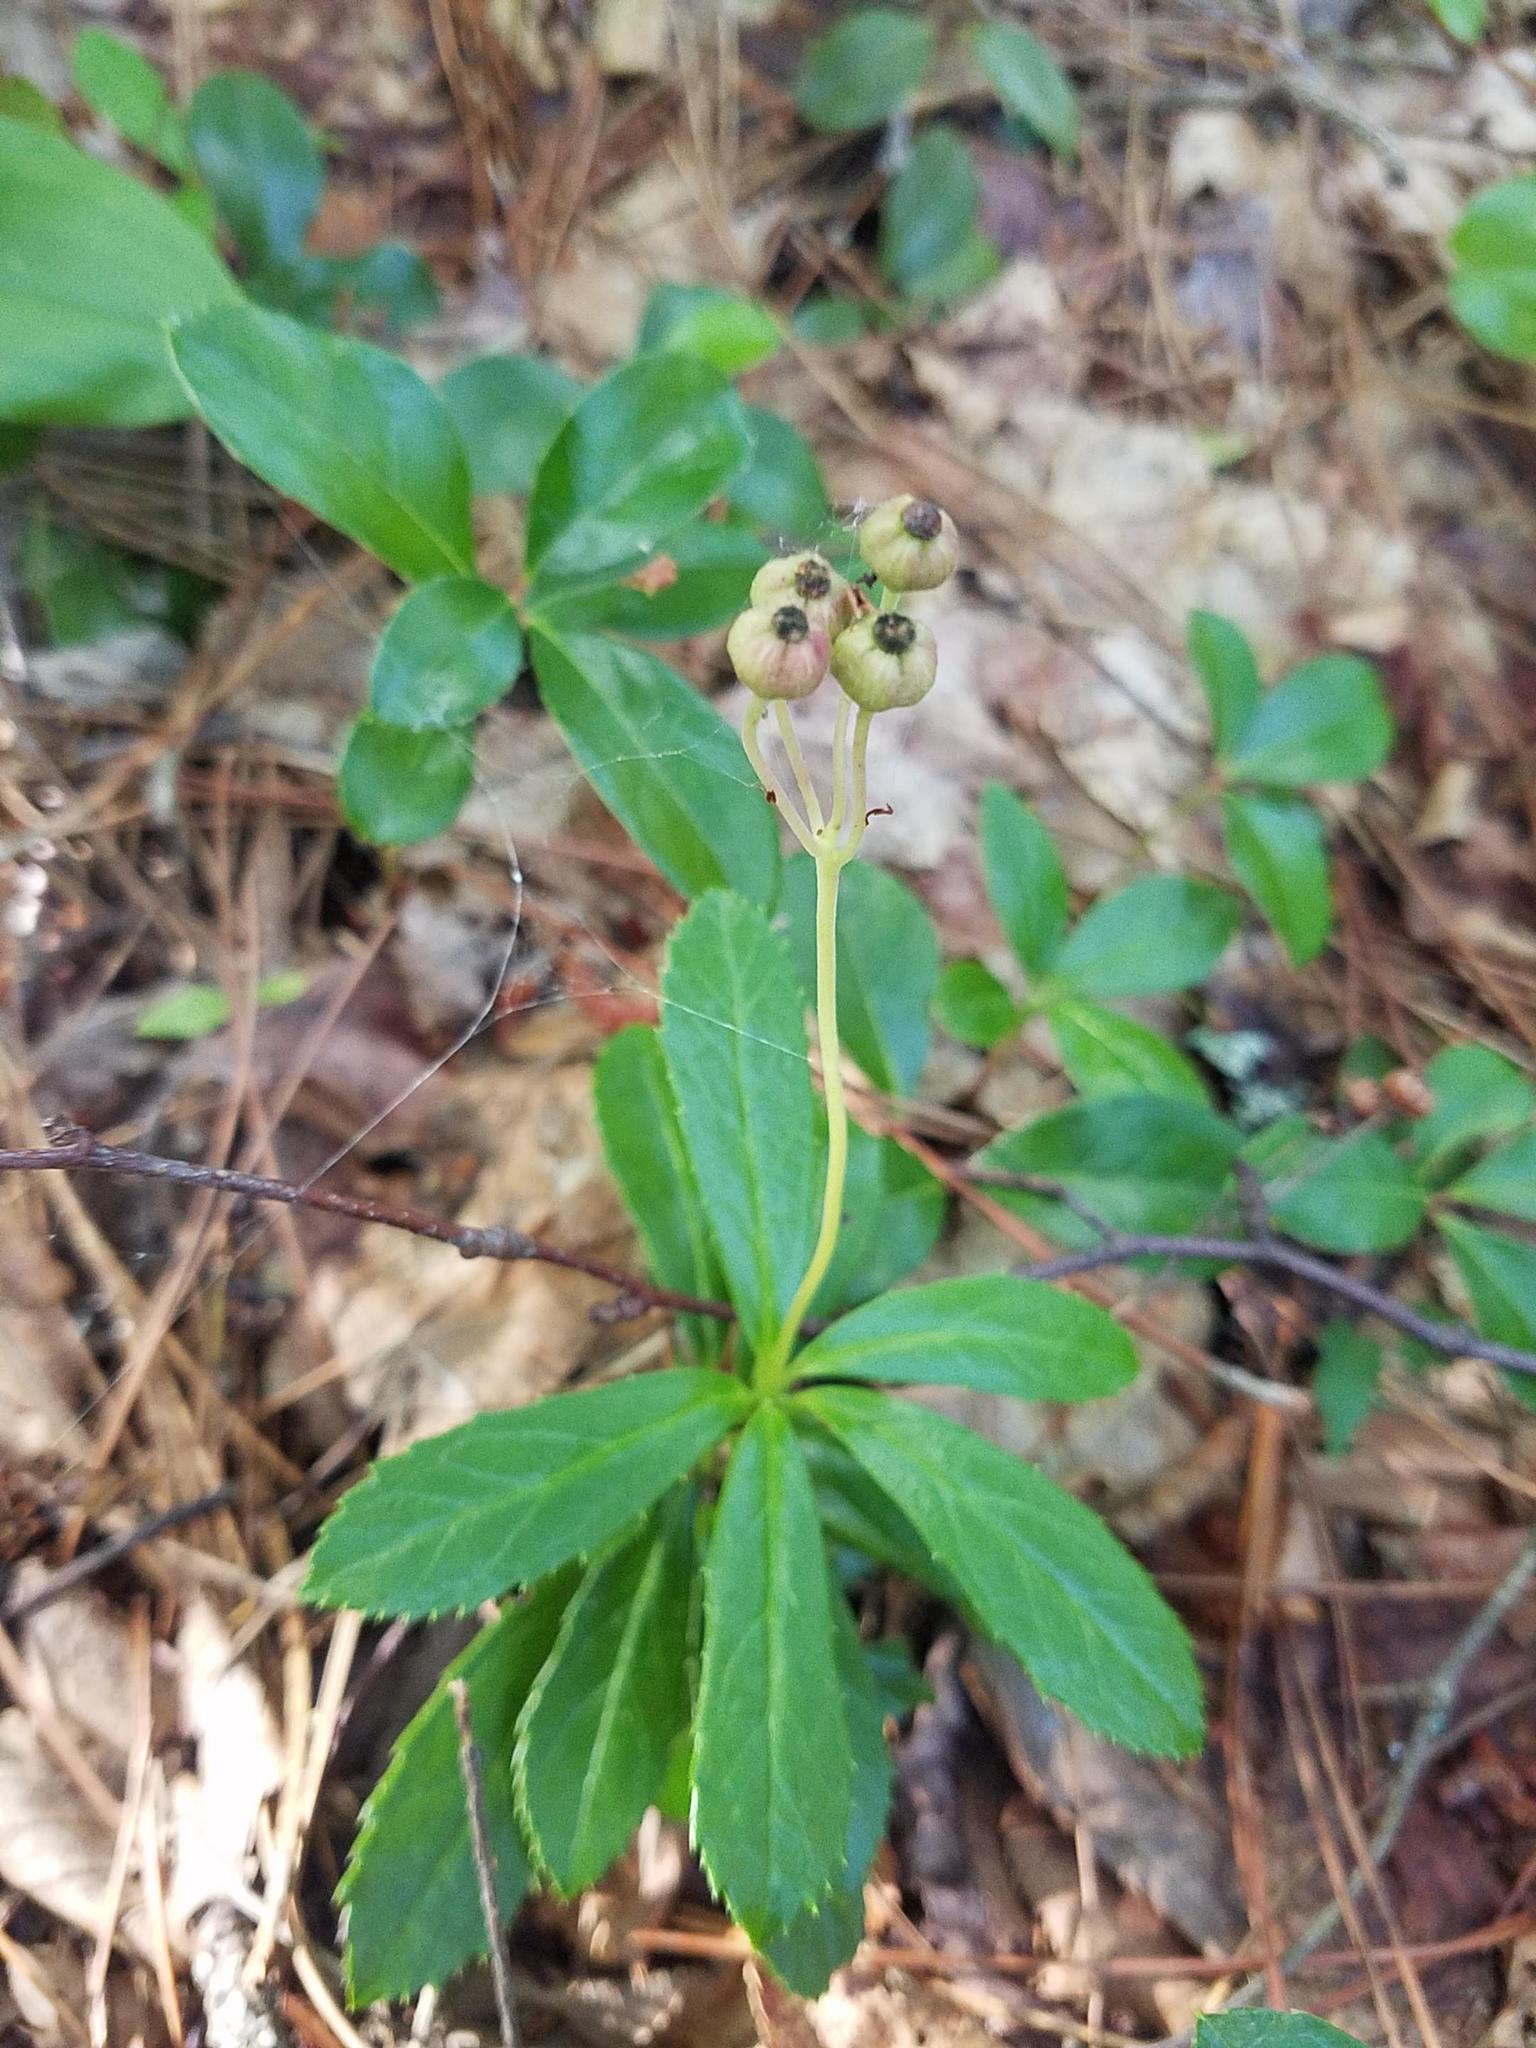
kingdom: Plantae
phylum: Tracheophyta
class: Magnoliopsida
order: Ericales
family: Ericaceae
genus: Chimaphila
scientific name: Chimaphila umbellata
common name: Pipsissewa
